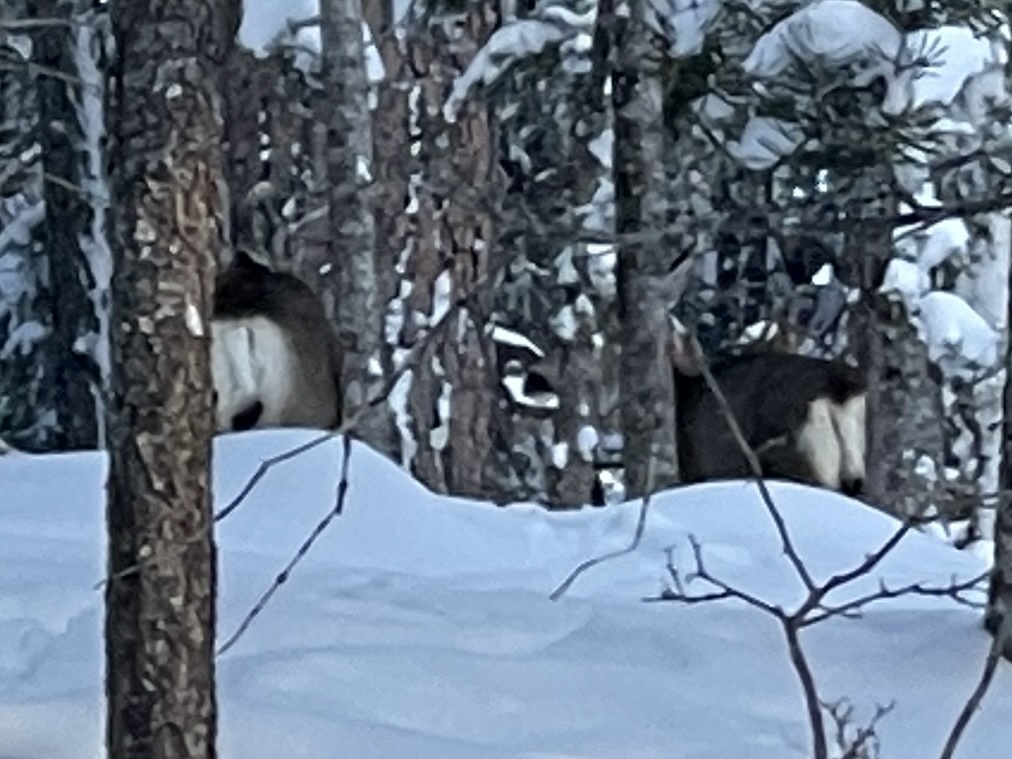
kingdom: Animalia
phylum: Chordata
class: Mammalia
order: Artiodactyla
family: Cervidae
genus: Odocoileus
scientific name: Odocoileus hemionus
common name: Mule deer
